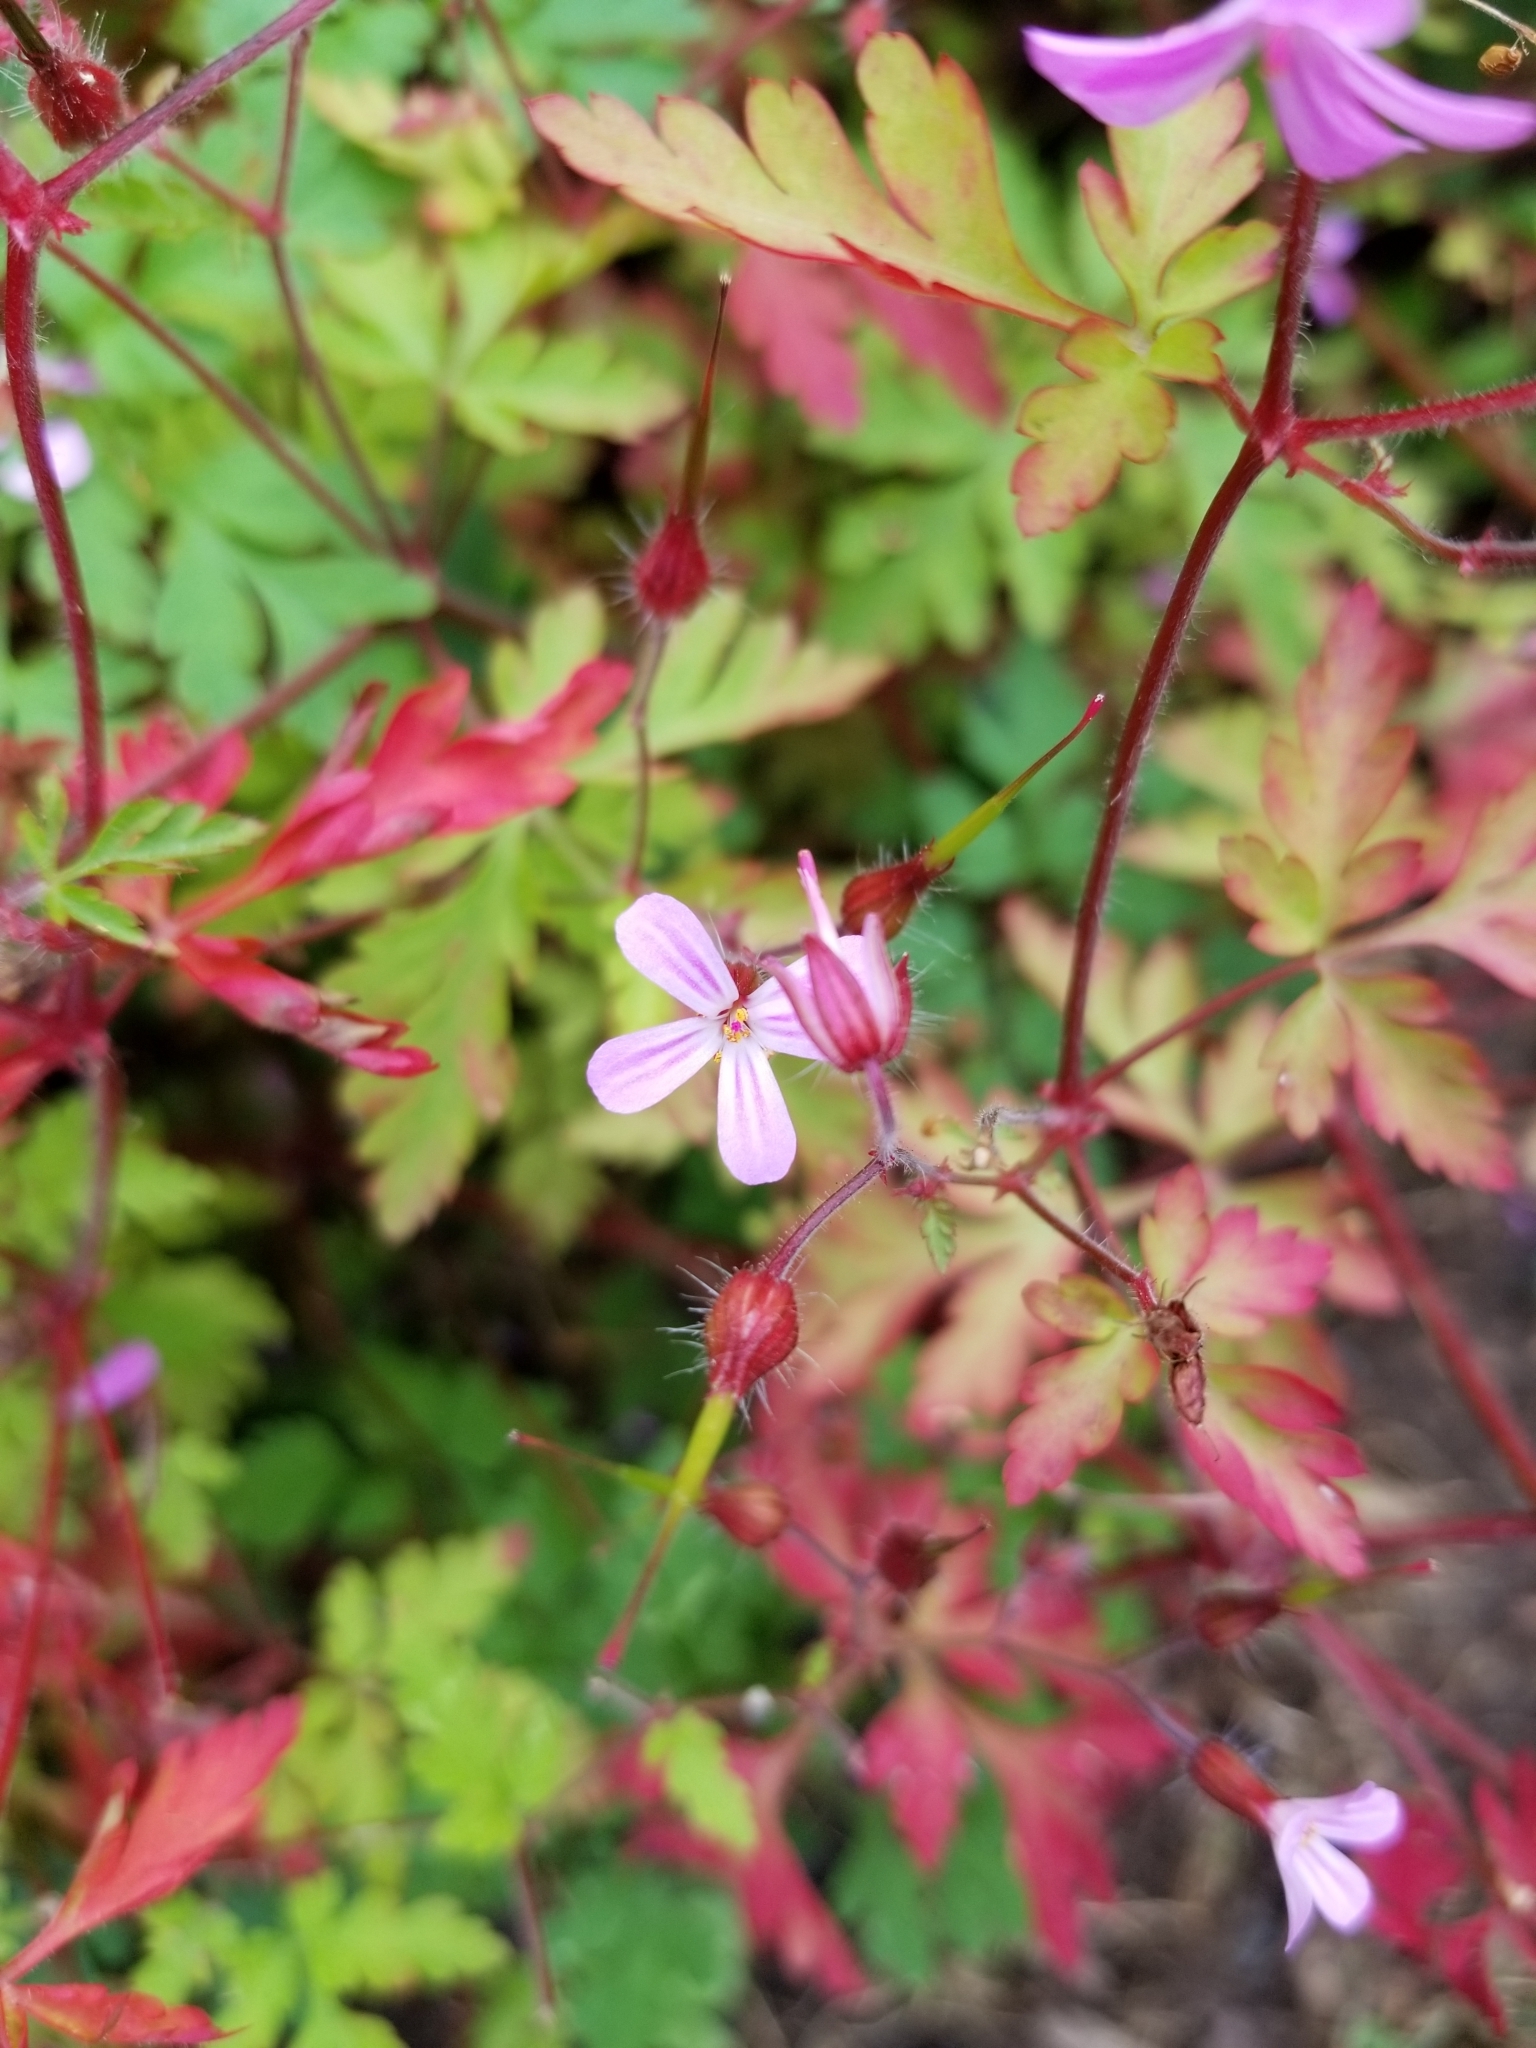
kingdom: Plantae
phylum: Tracheophyta
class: Magnoliopsida
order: Geraniales
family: Geraniaceae
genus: Geranium
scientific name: Geranium robertianum
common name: Herb-robert
